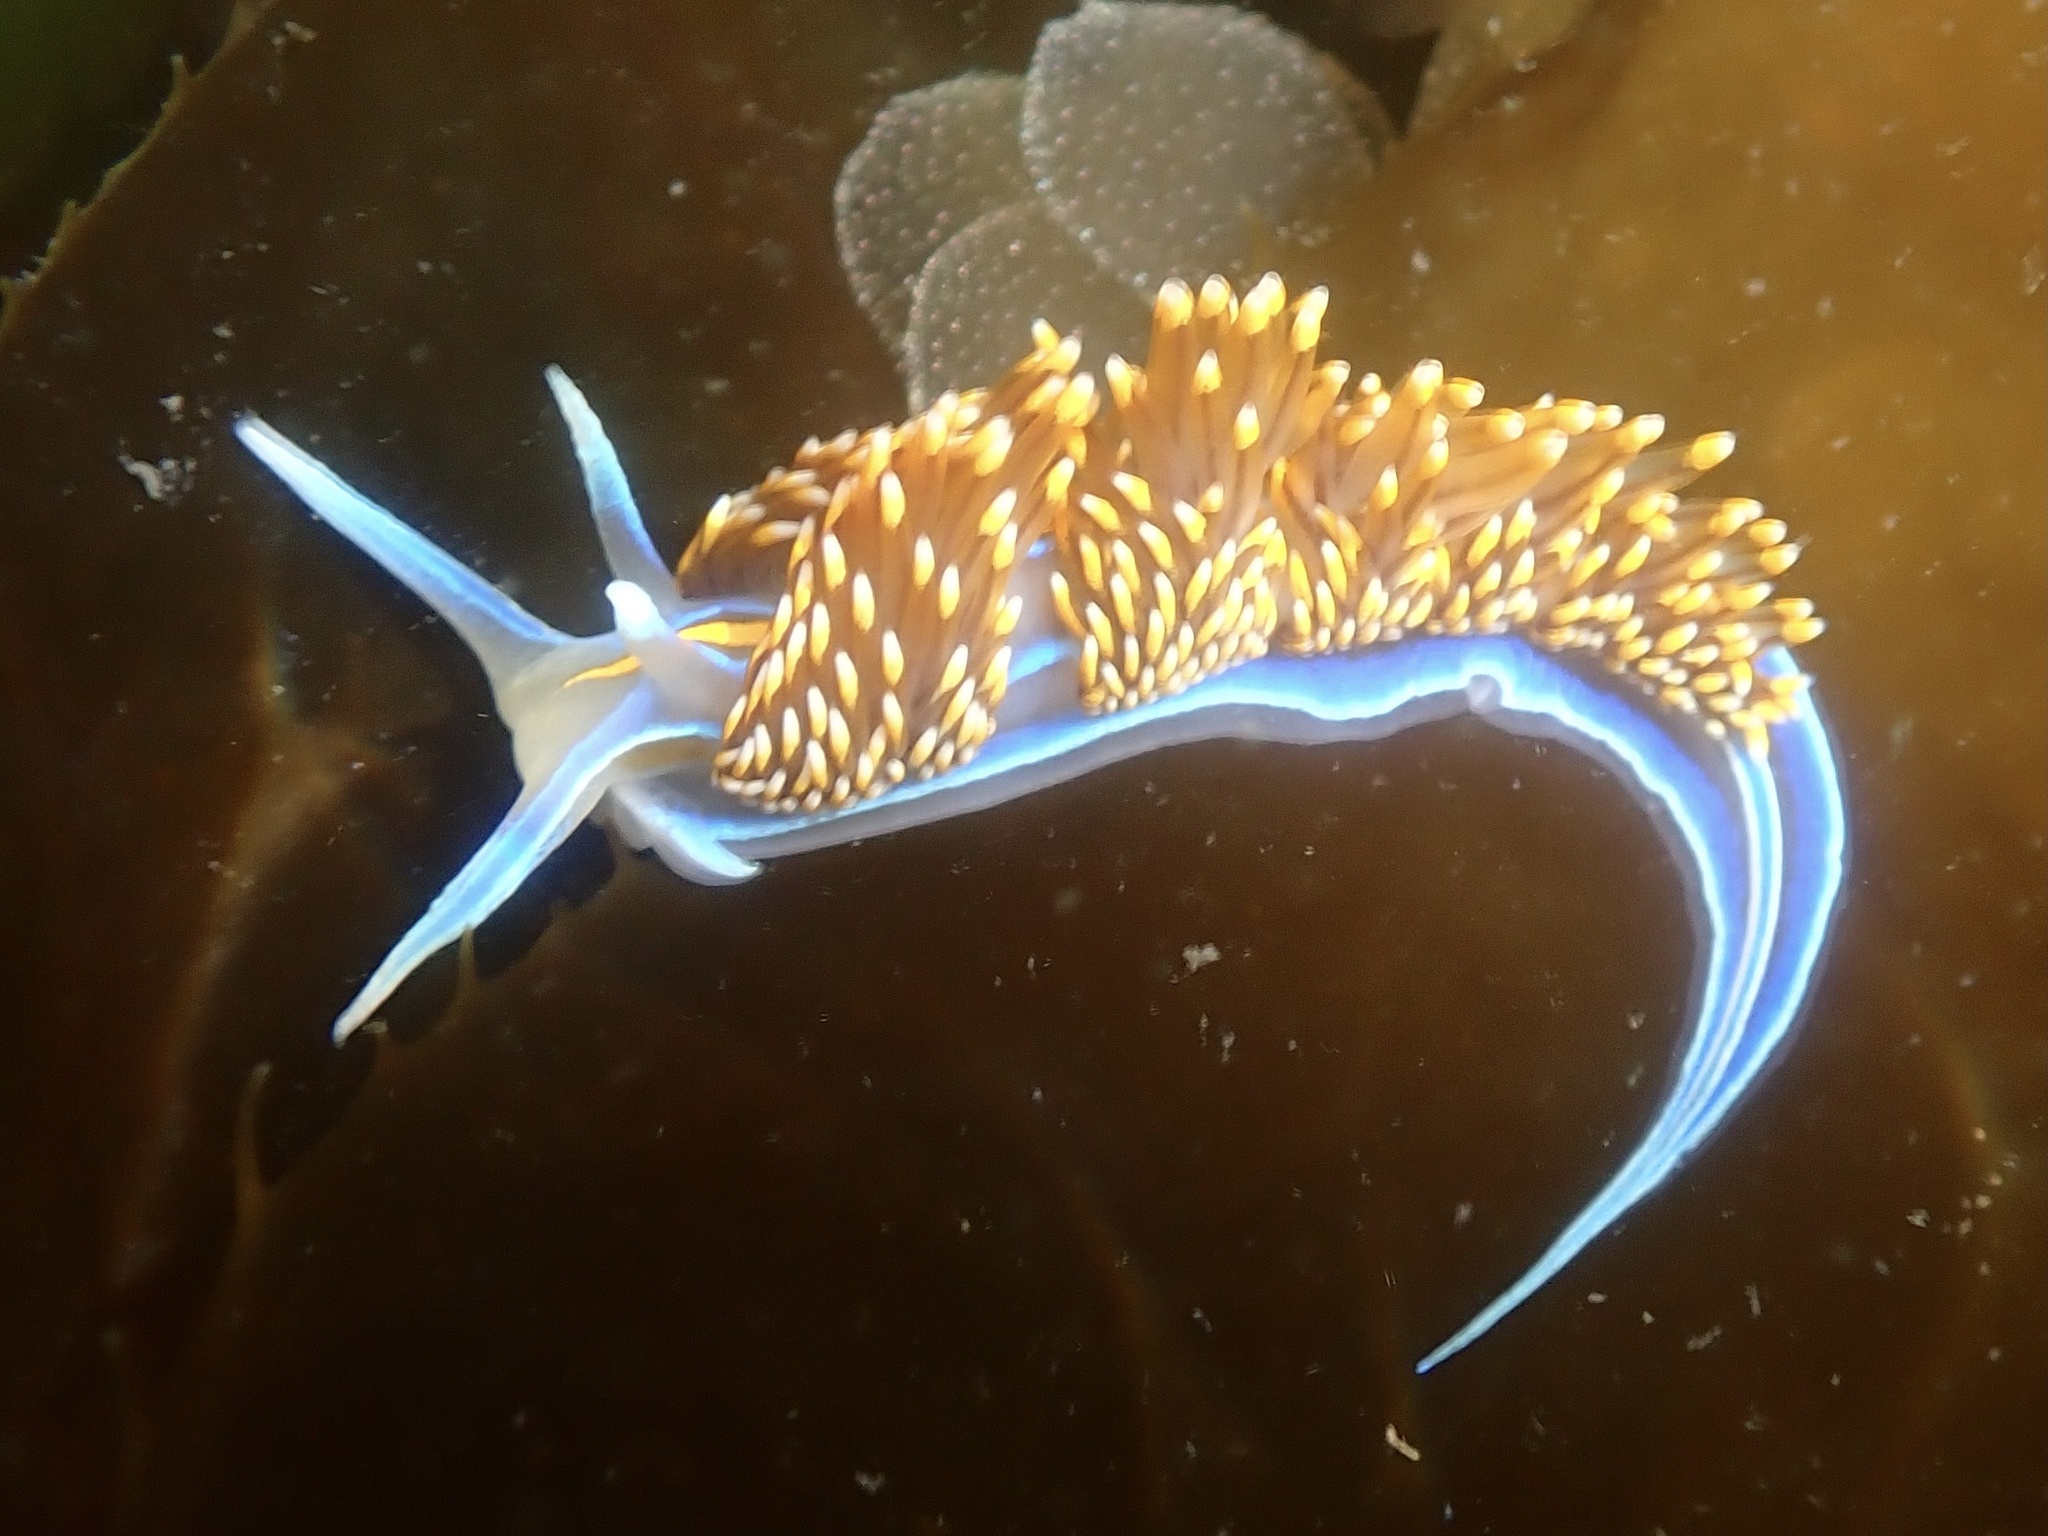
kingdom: Animalia
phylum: Mollusca
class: Gastropoda
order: Nudibranchia
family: Myrrhinidae
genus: Hermissenda
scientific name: Hermissenda opalescens
